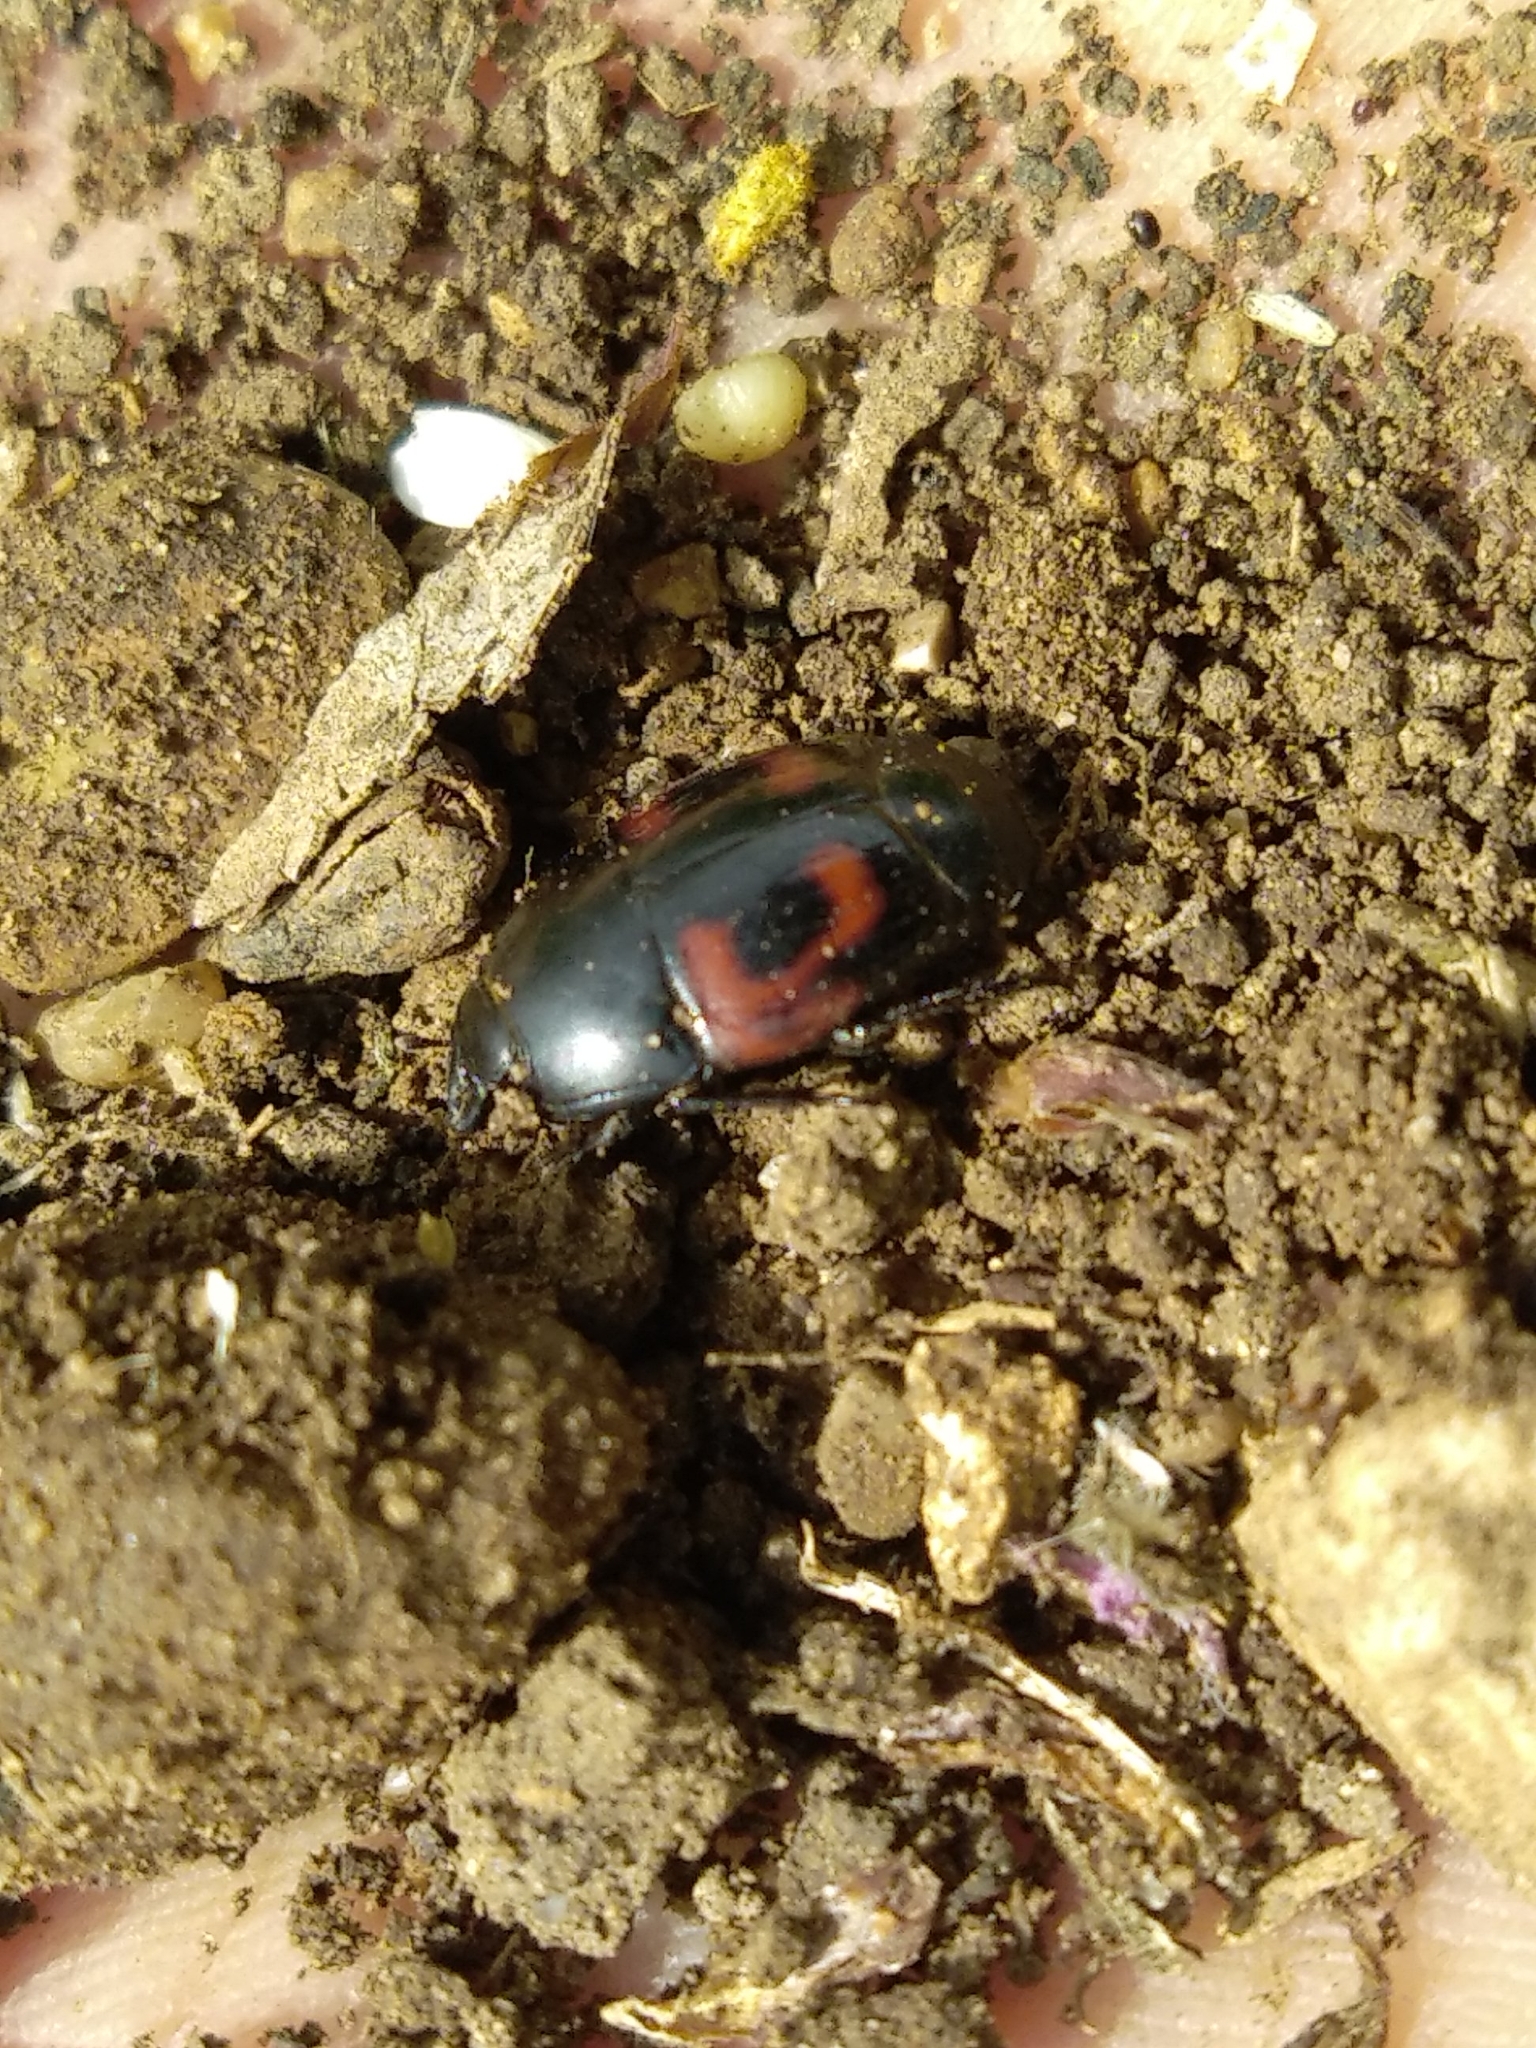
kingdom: Animalia
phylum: Arthropoda
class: Insecta
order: Coleoptera
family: Histeridae
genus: Hister
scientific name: Hister quadrimaculatus
